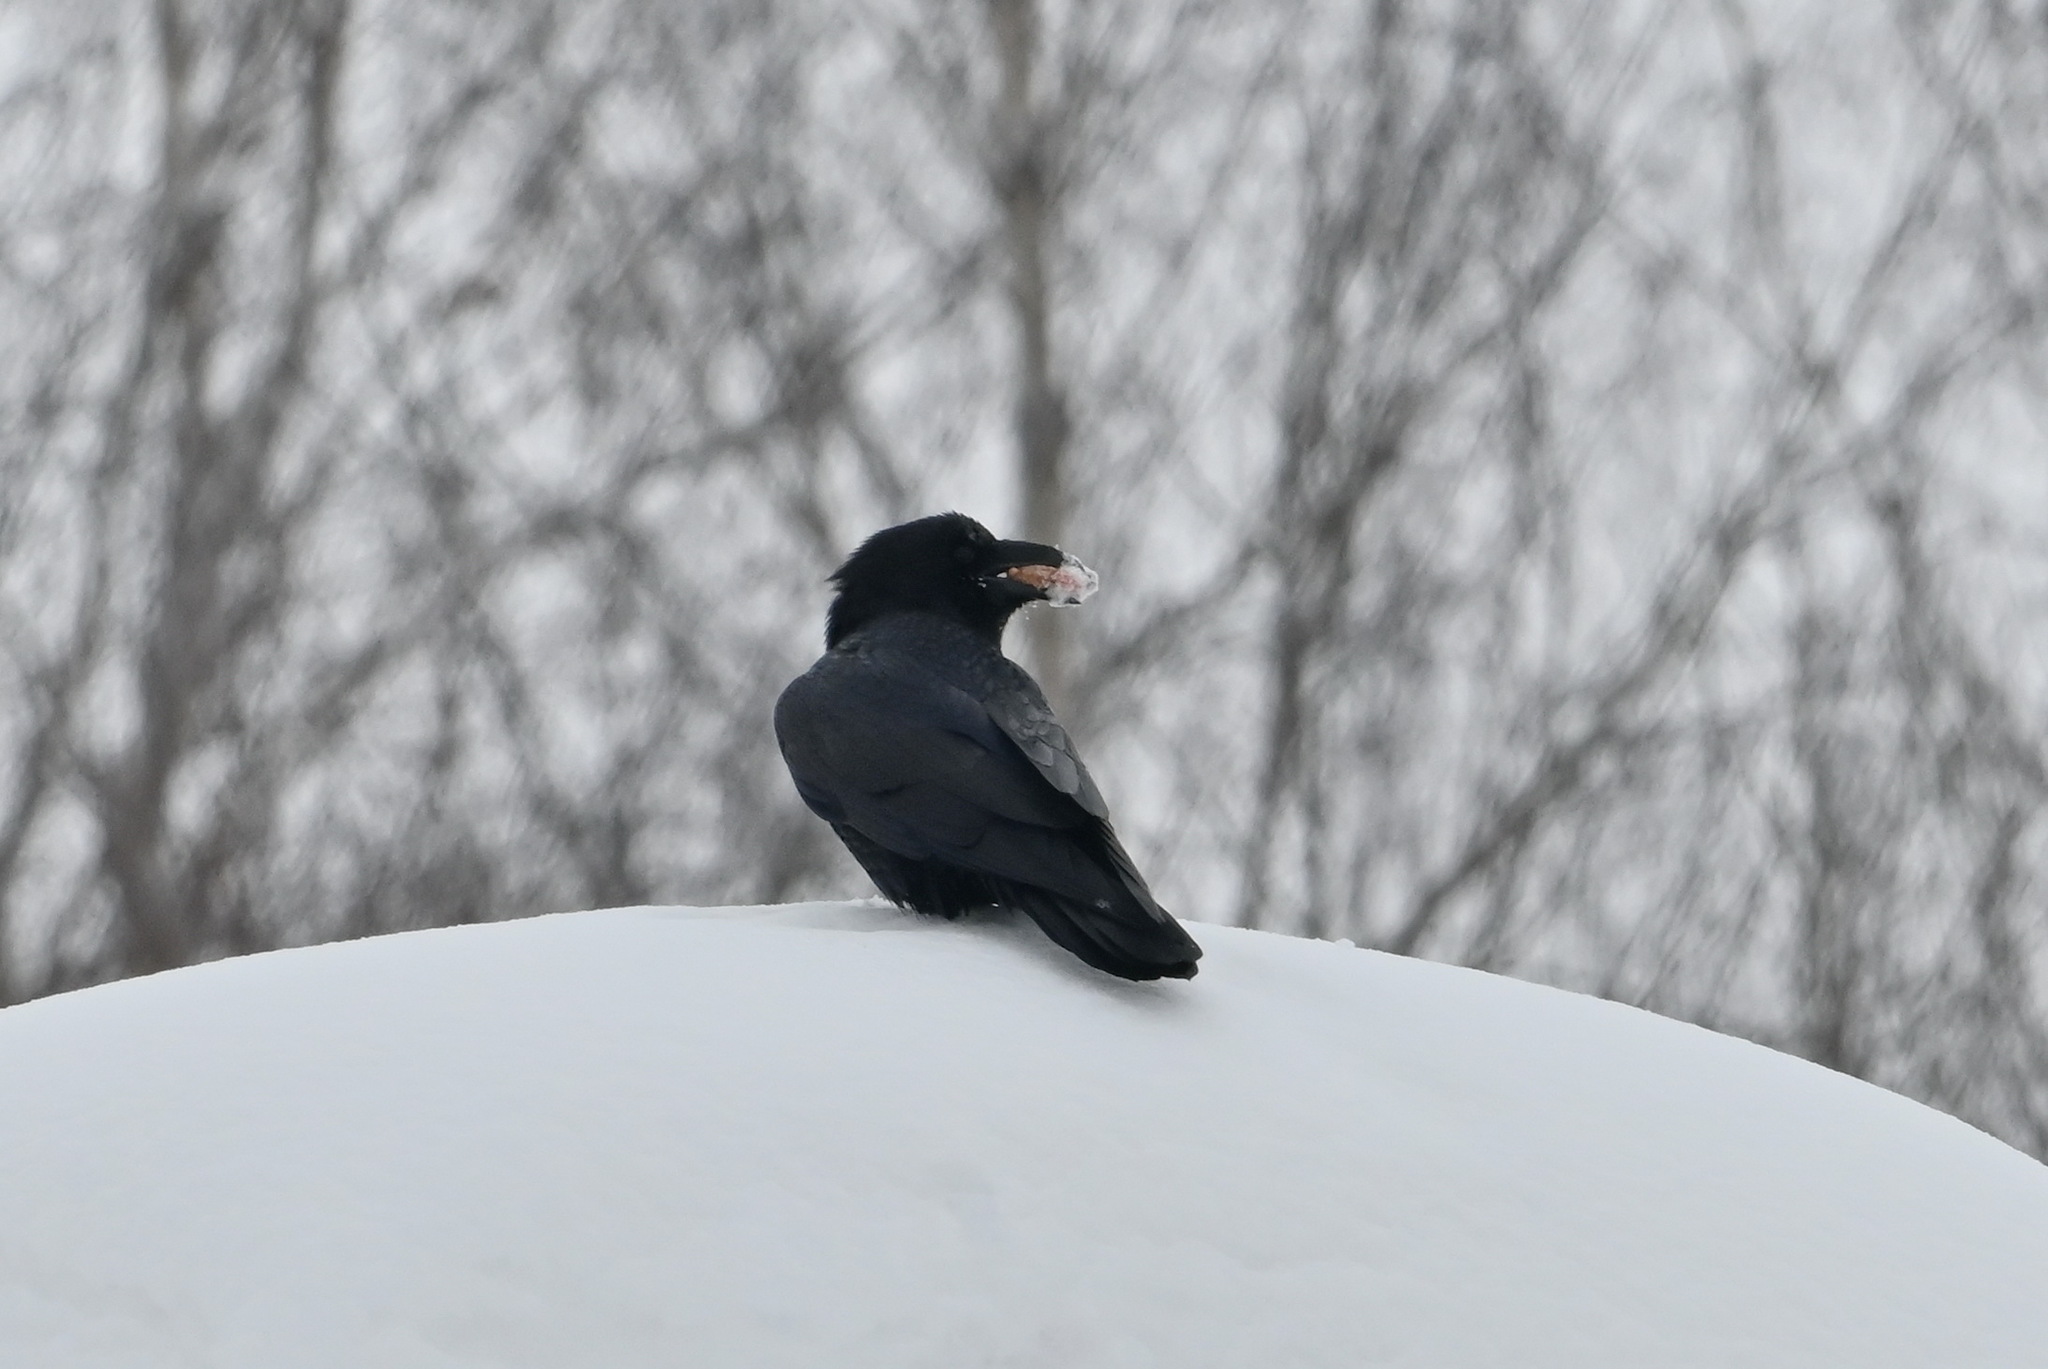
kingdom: Animalia
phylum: Chordata
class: Aves
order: Passeriformes
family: Corvidae
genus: Corvus
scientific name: Corvus corax
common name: Common raven
